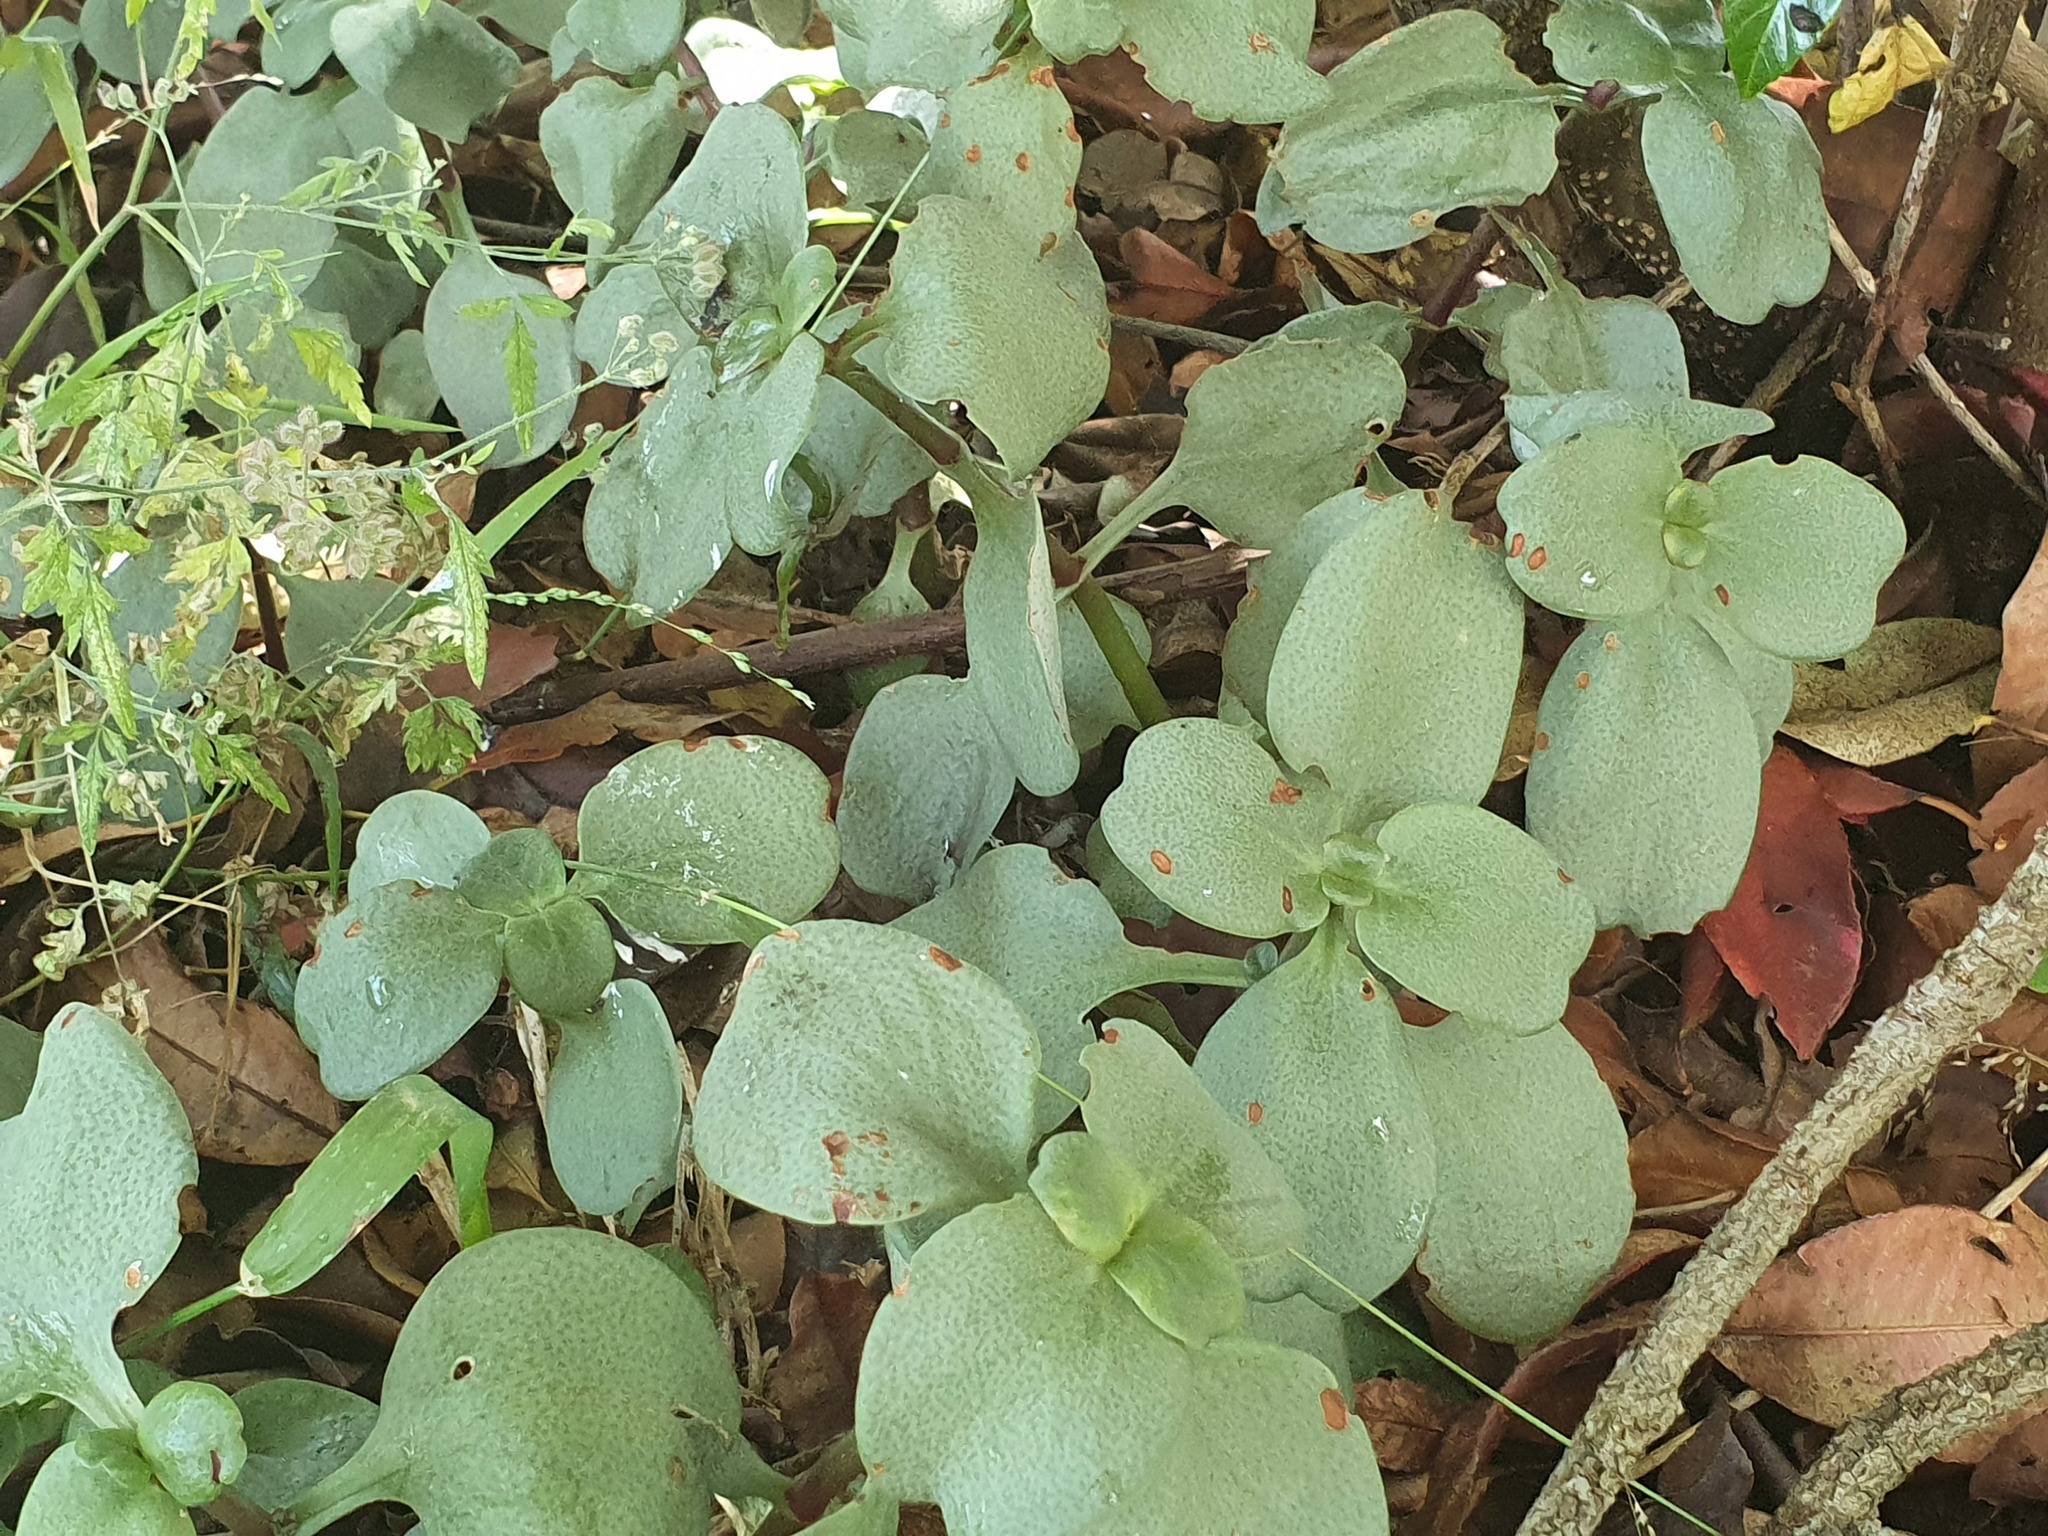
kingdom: Plantae
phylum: Tracheophyta
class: Magnoliopsida
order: Saxifragales
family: Crassulaceae
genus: Crassula
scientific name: Crassula multicava
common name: Cape province pygmyweed
